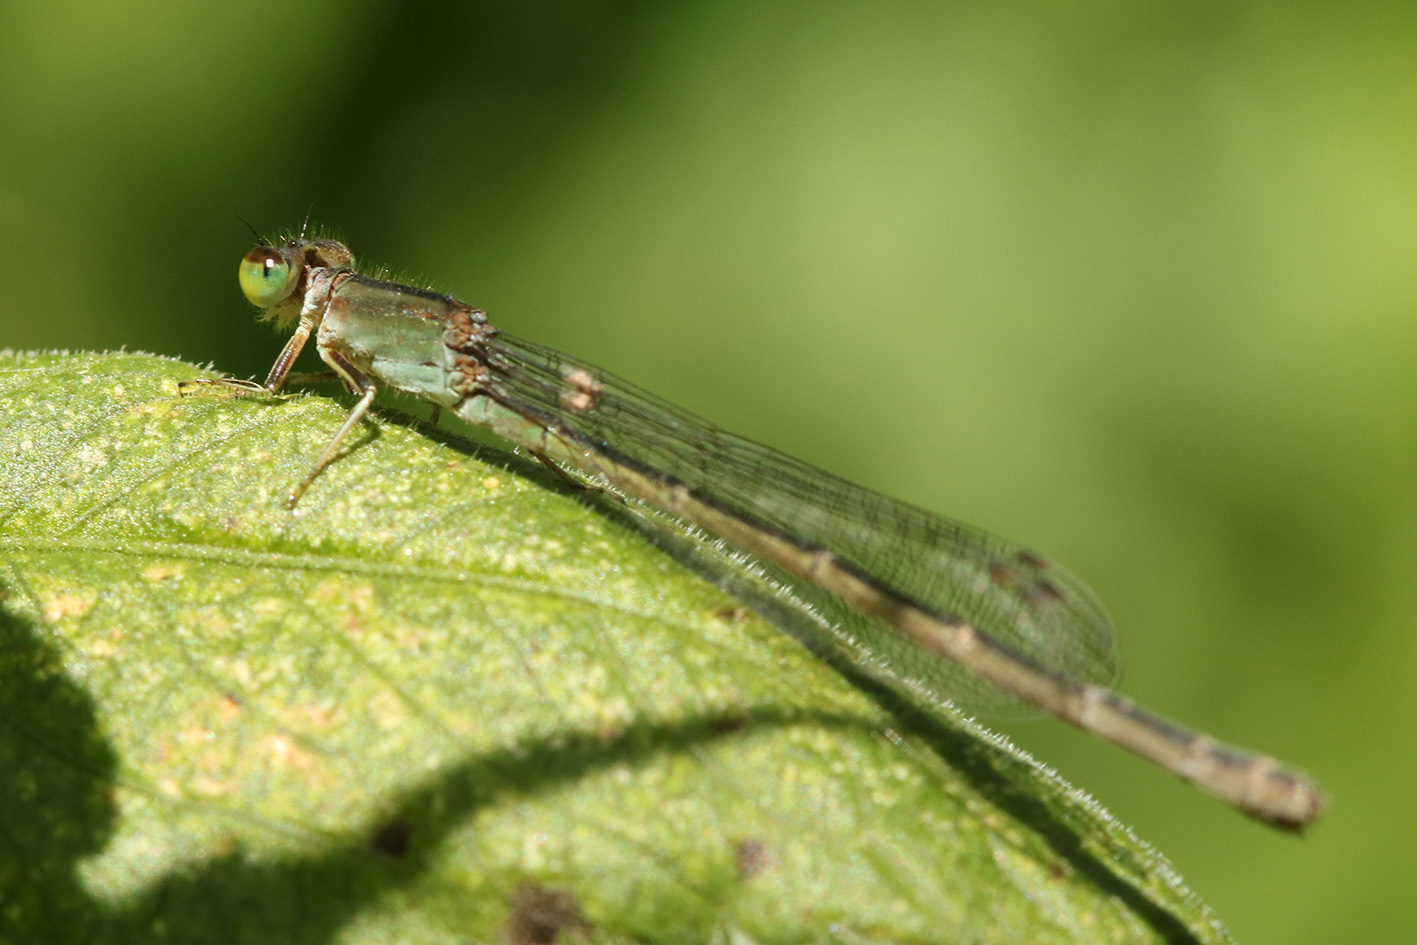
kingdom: Animalia
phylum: Arthropoda
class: Insecta
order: Odonata
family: Coenagrionidae
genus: Ischnura
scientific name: Ischnura fluviatilis
